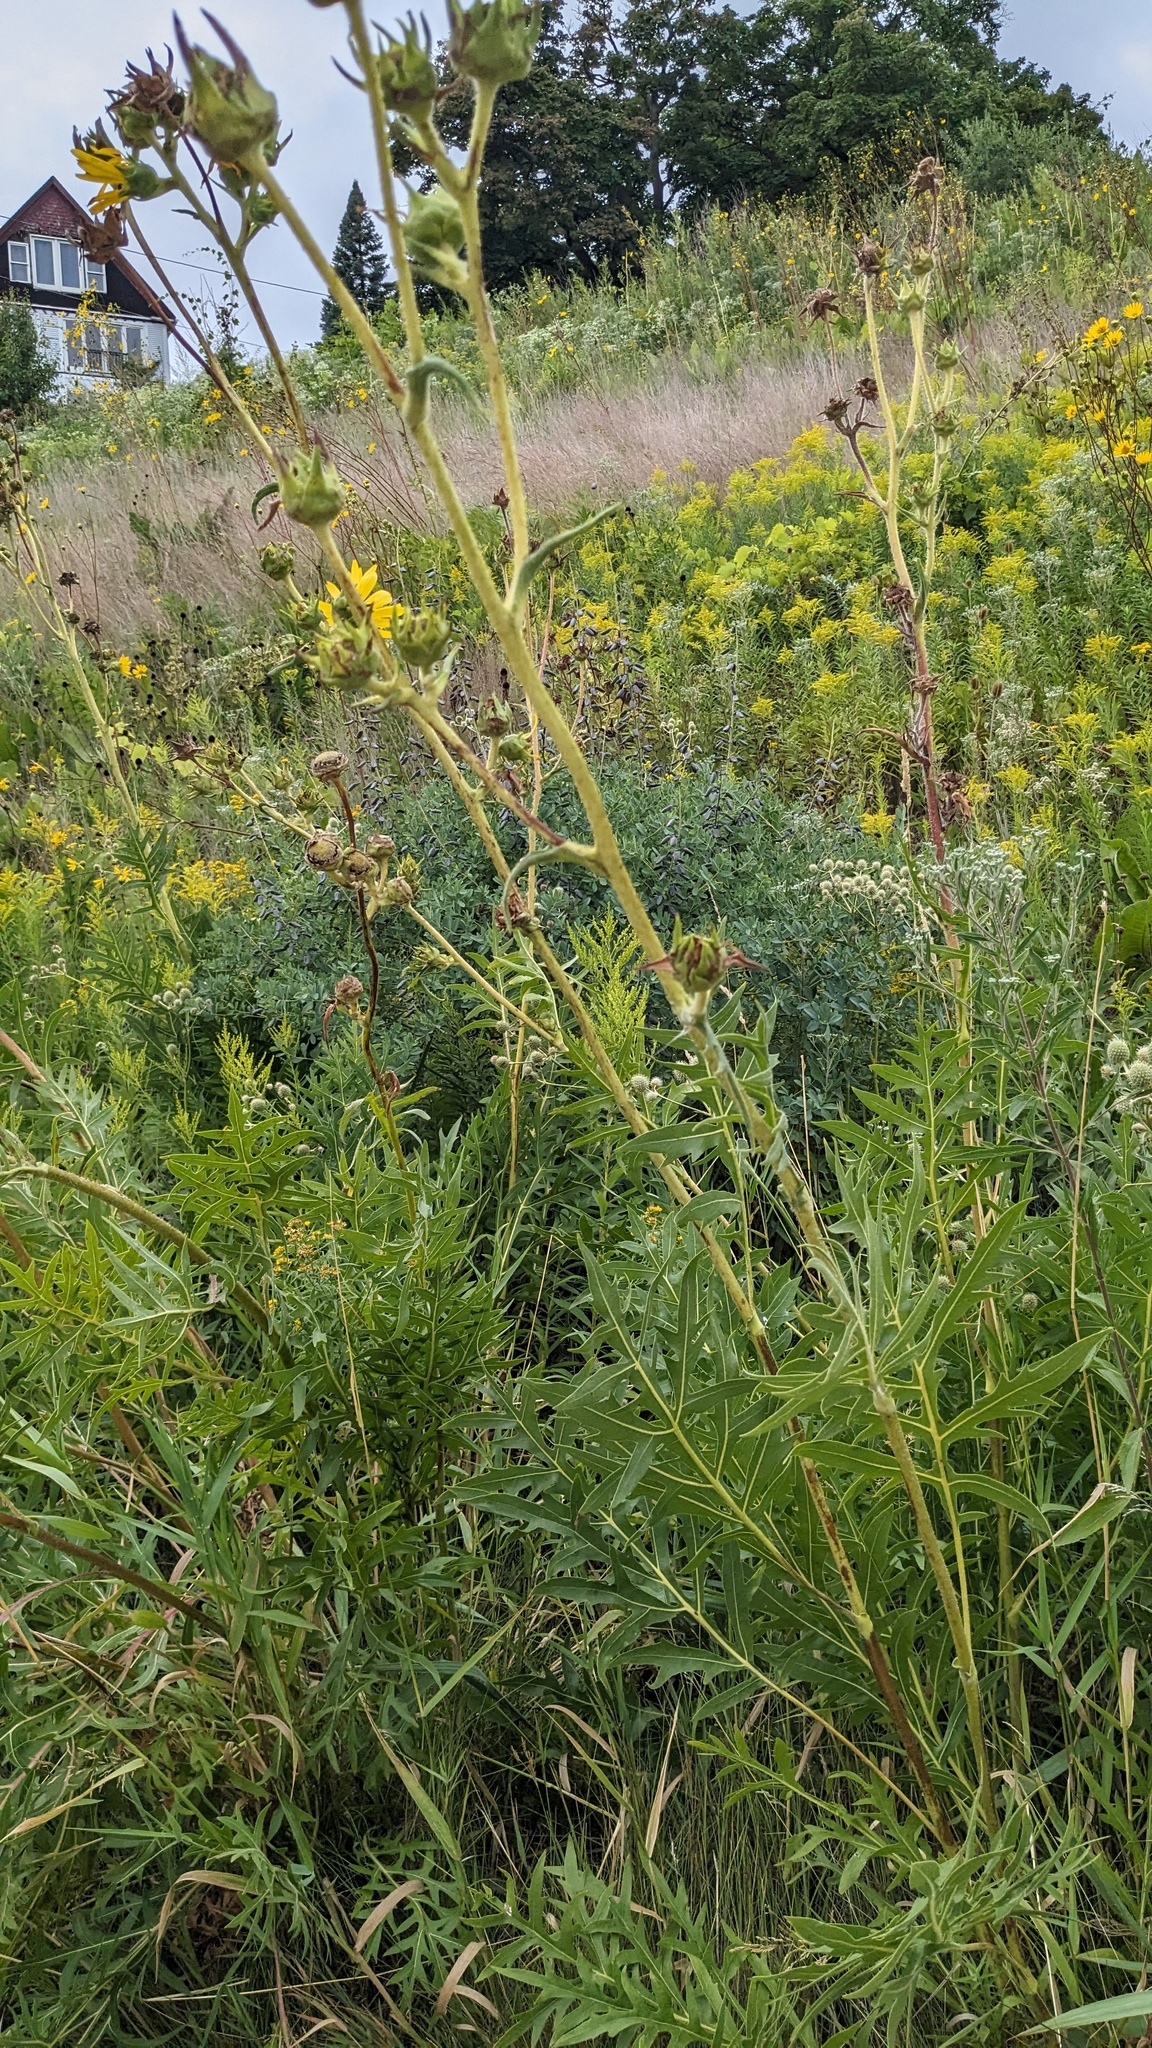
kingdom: Plantae
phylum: Tracheophyta
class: Magnoliopsida
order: Asterales
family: Asteraceae
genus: Silphium
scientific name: Silphium laciniatum
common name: Polarplant
